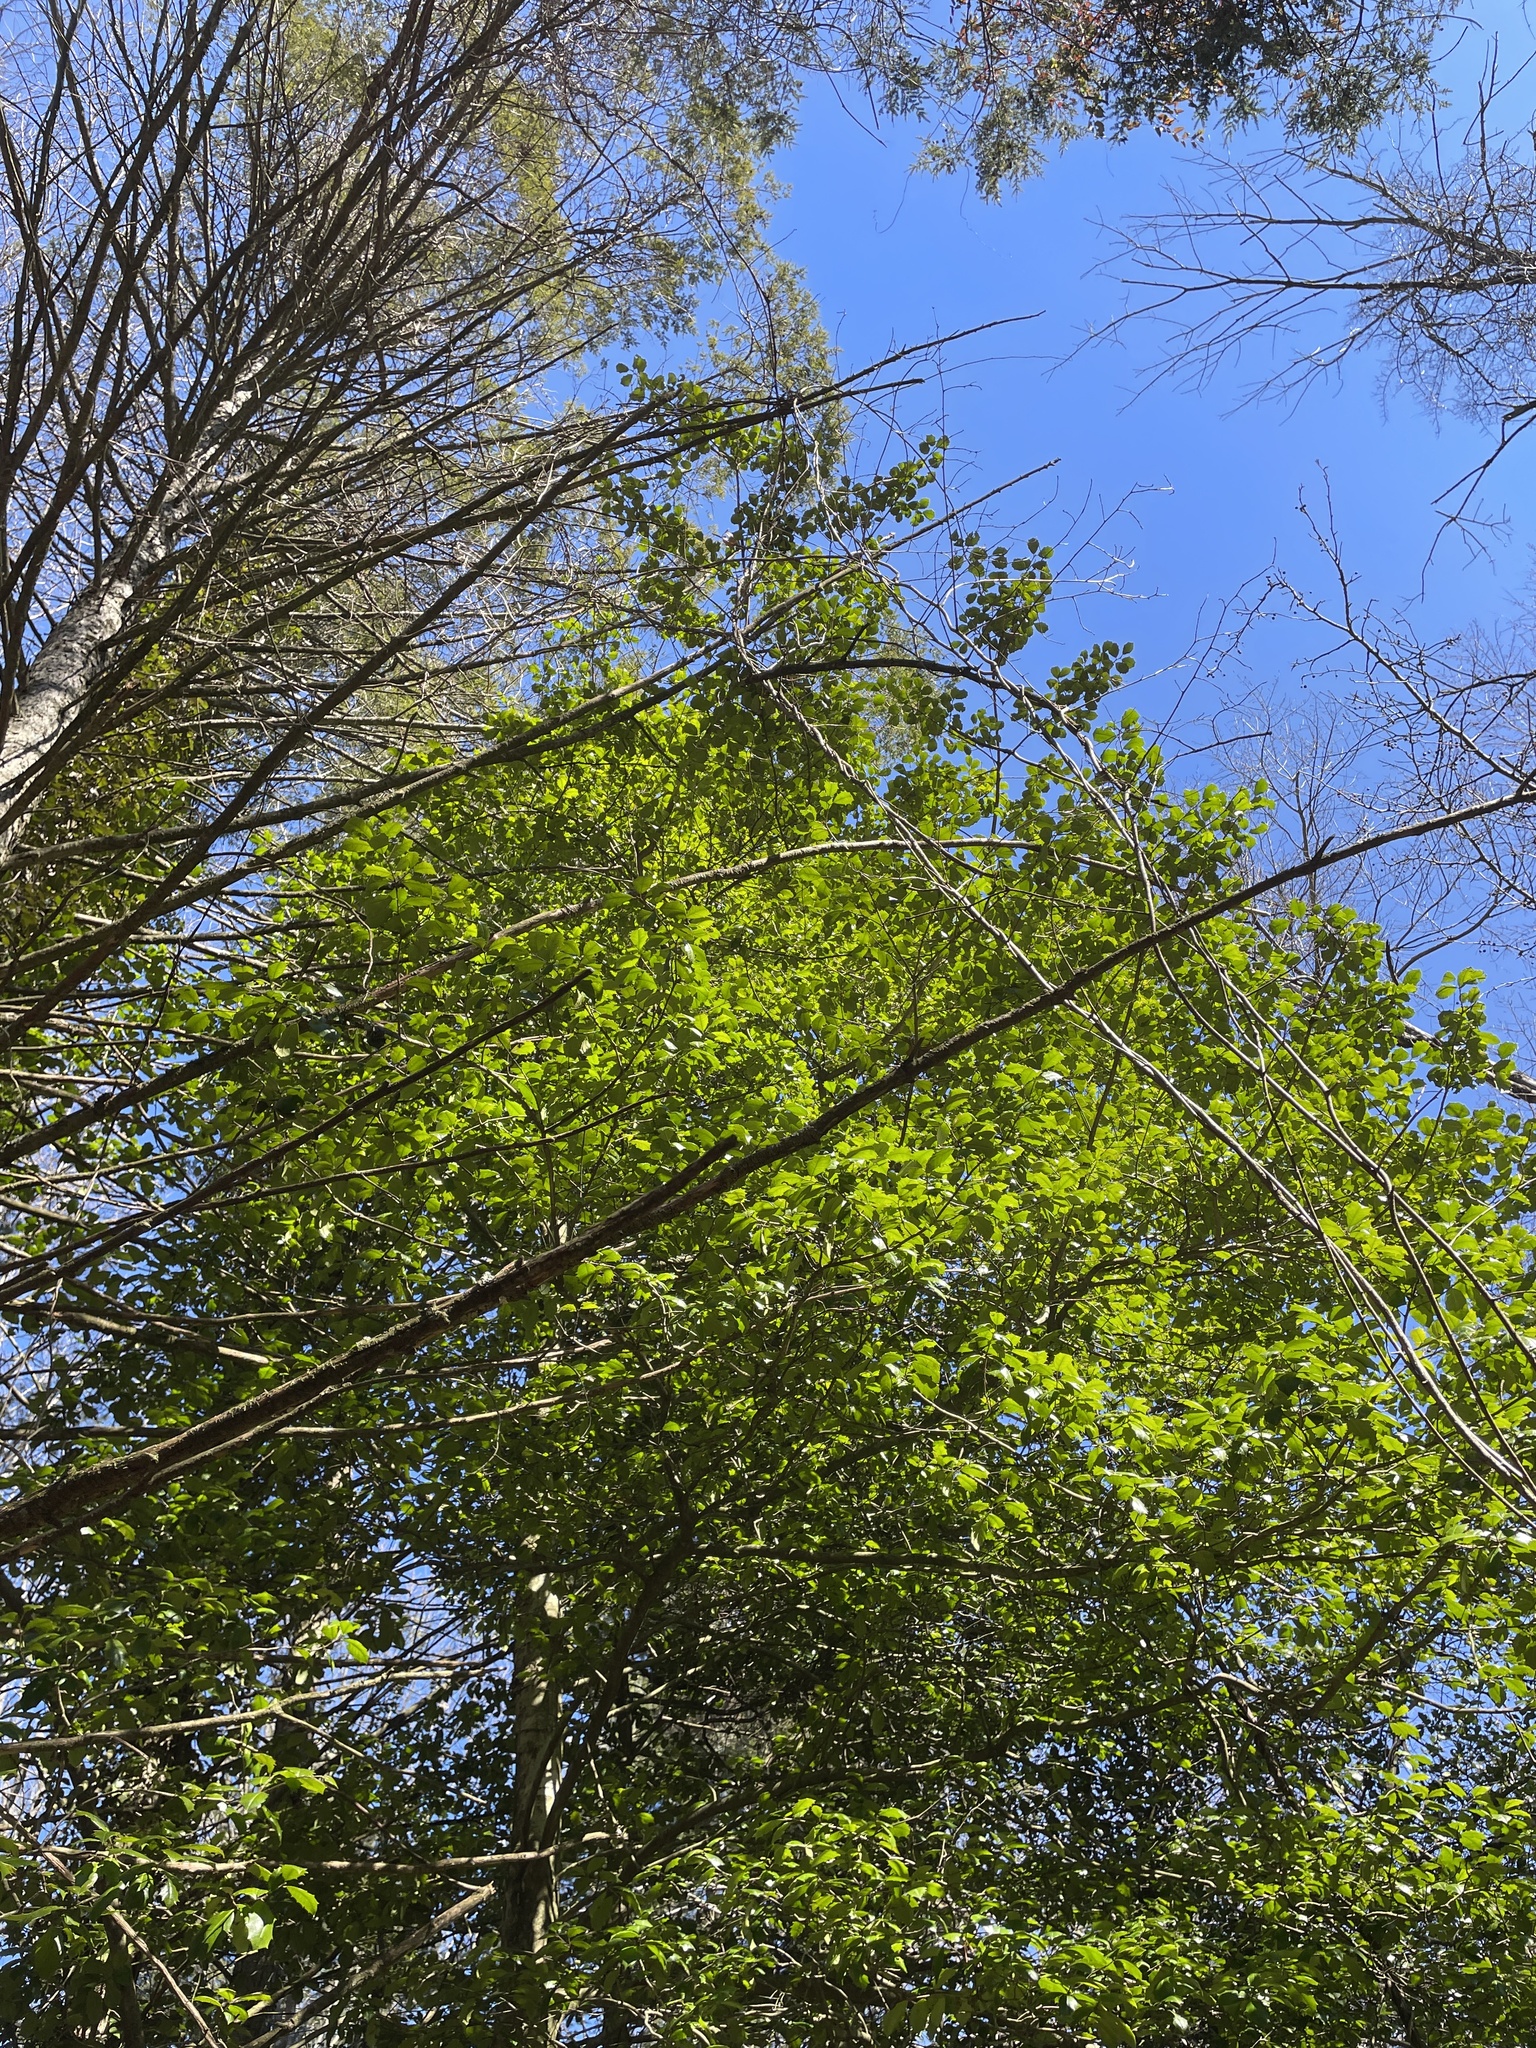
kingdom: Plantae
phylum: Tracheophyta
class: Magnoliopsida
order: Aquifoliales
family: Aquifoliaceae
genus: Ilex
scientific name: Ilex opaca
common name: American holly
